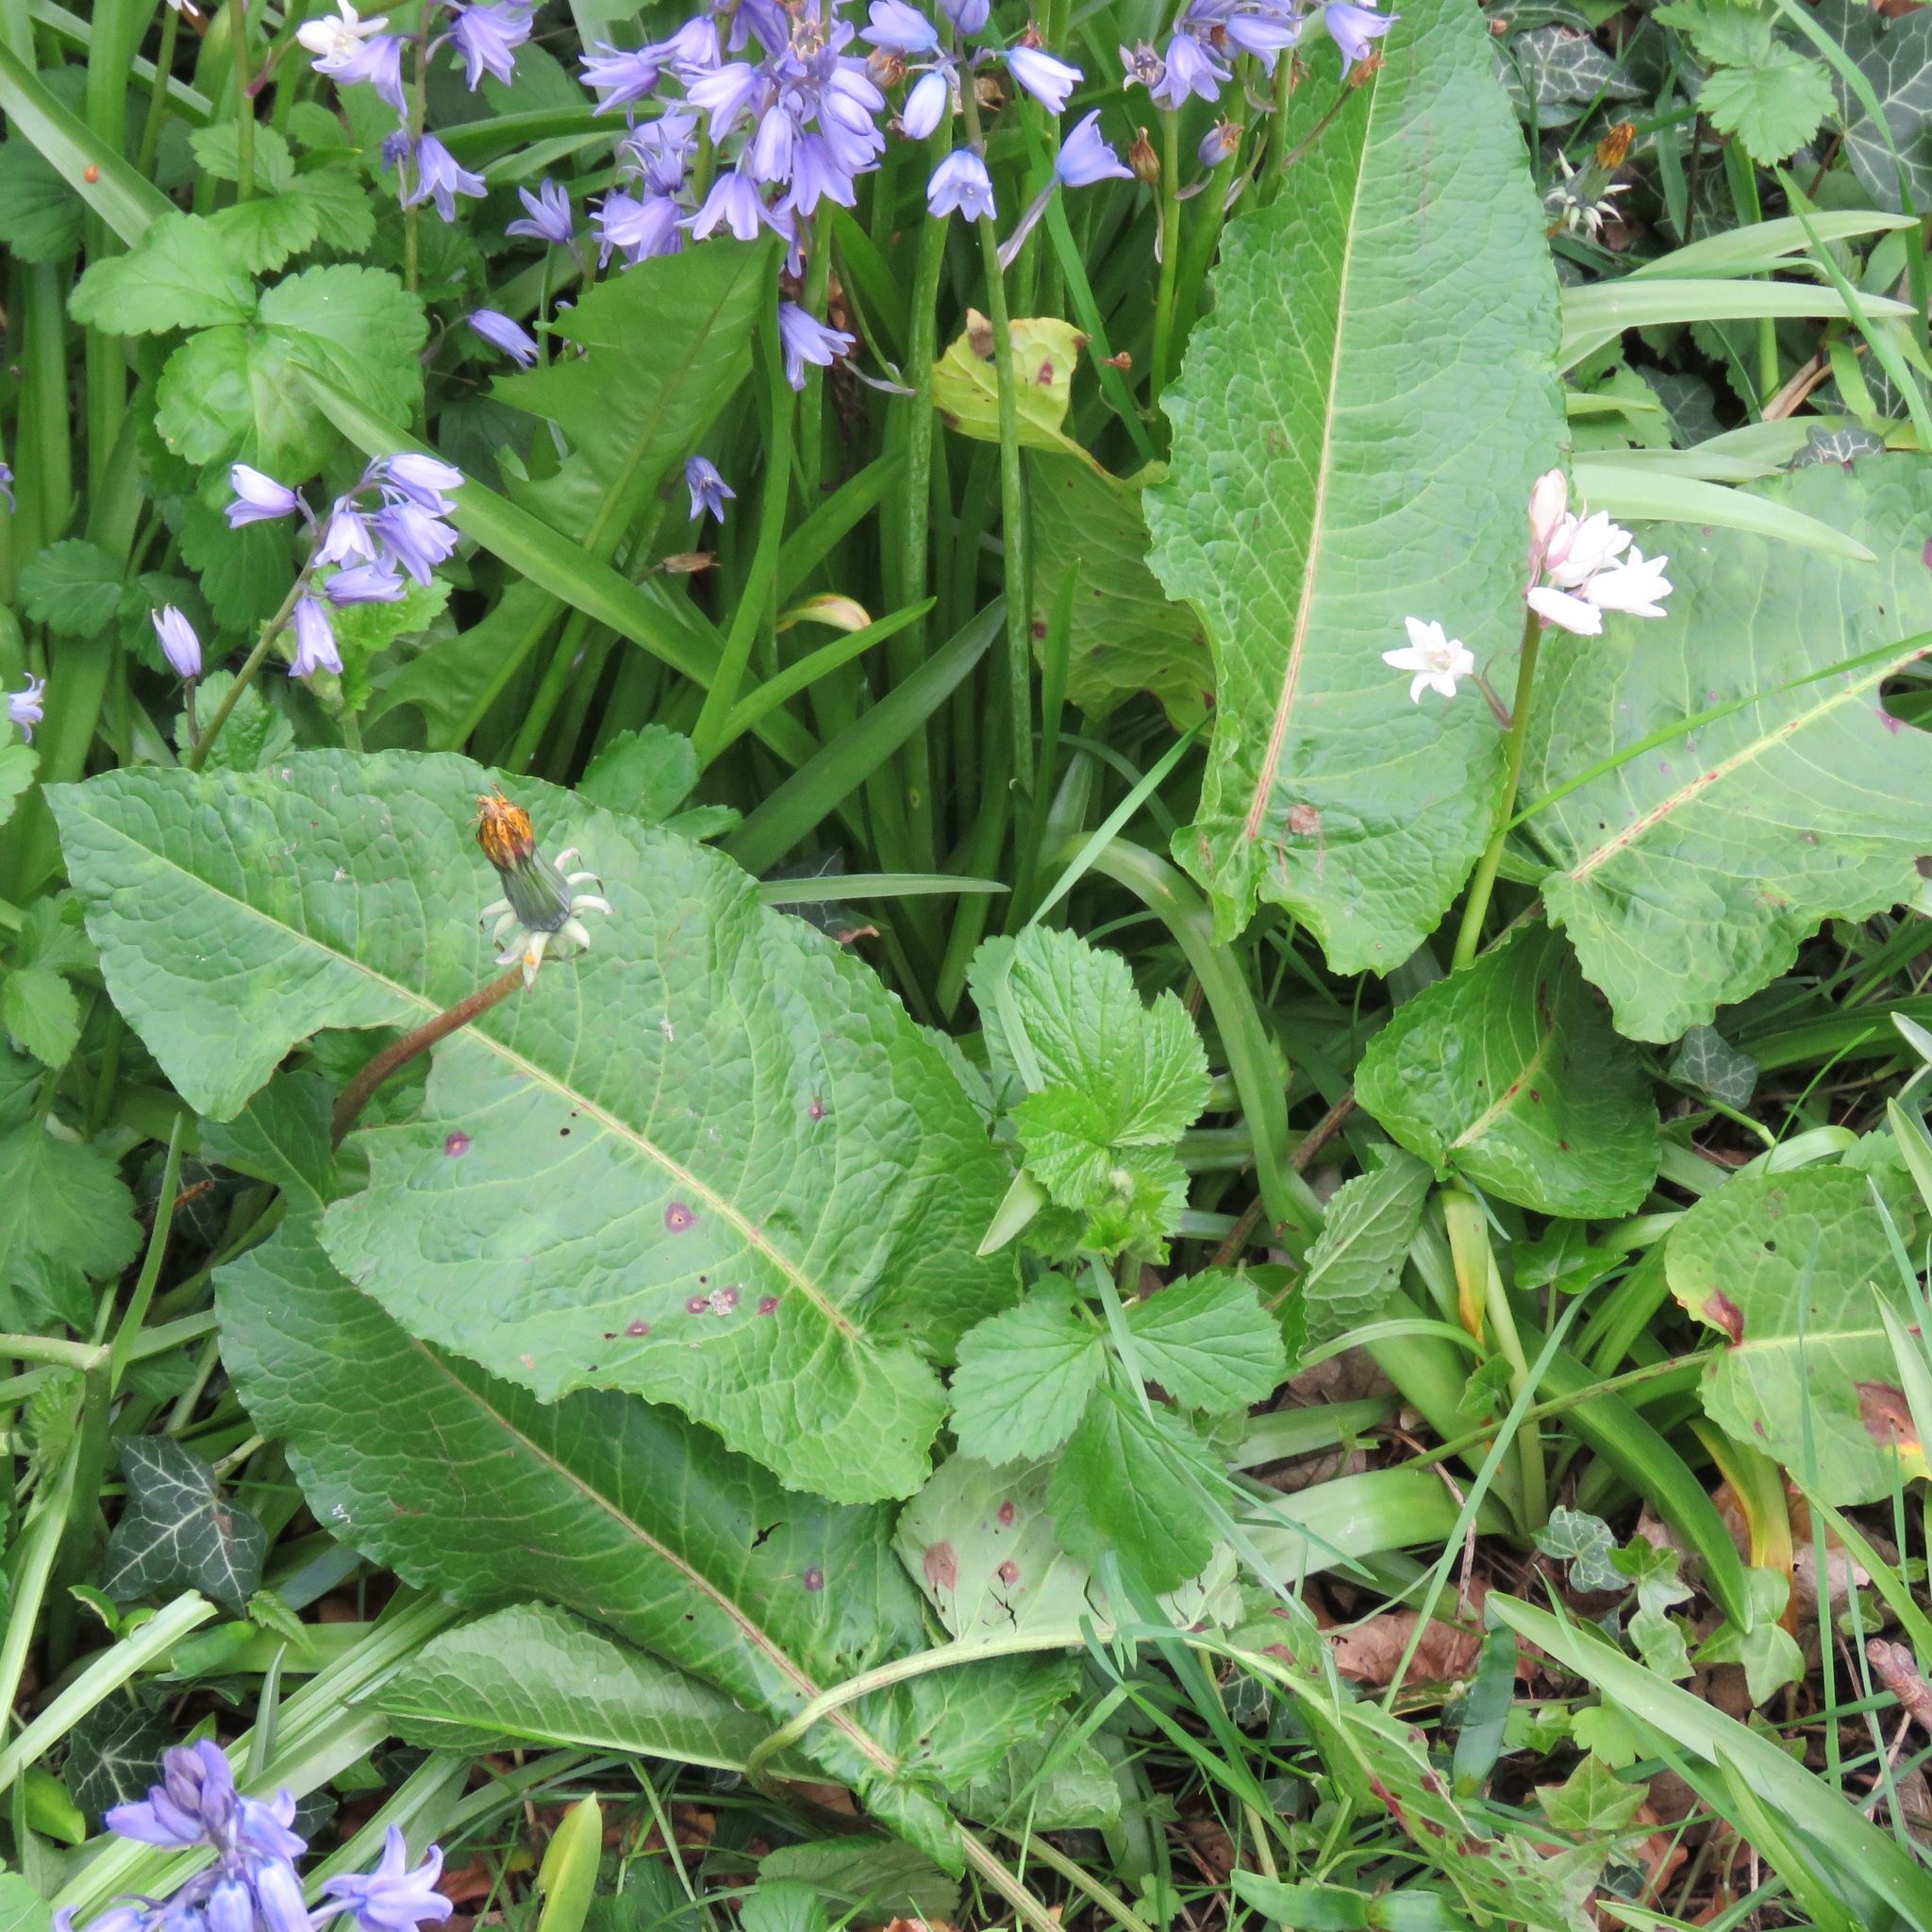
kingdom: Plantae
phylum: Tracheophyta
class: Magnoliopsida
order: Caryophyllales
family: Polygonaceae
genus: Rumex
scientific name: Rumex obtusifolius
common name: Bitter dock
